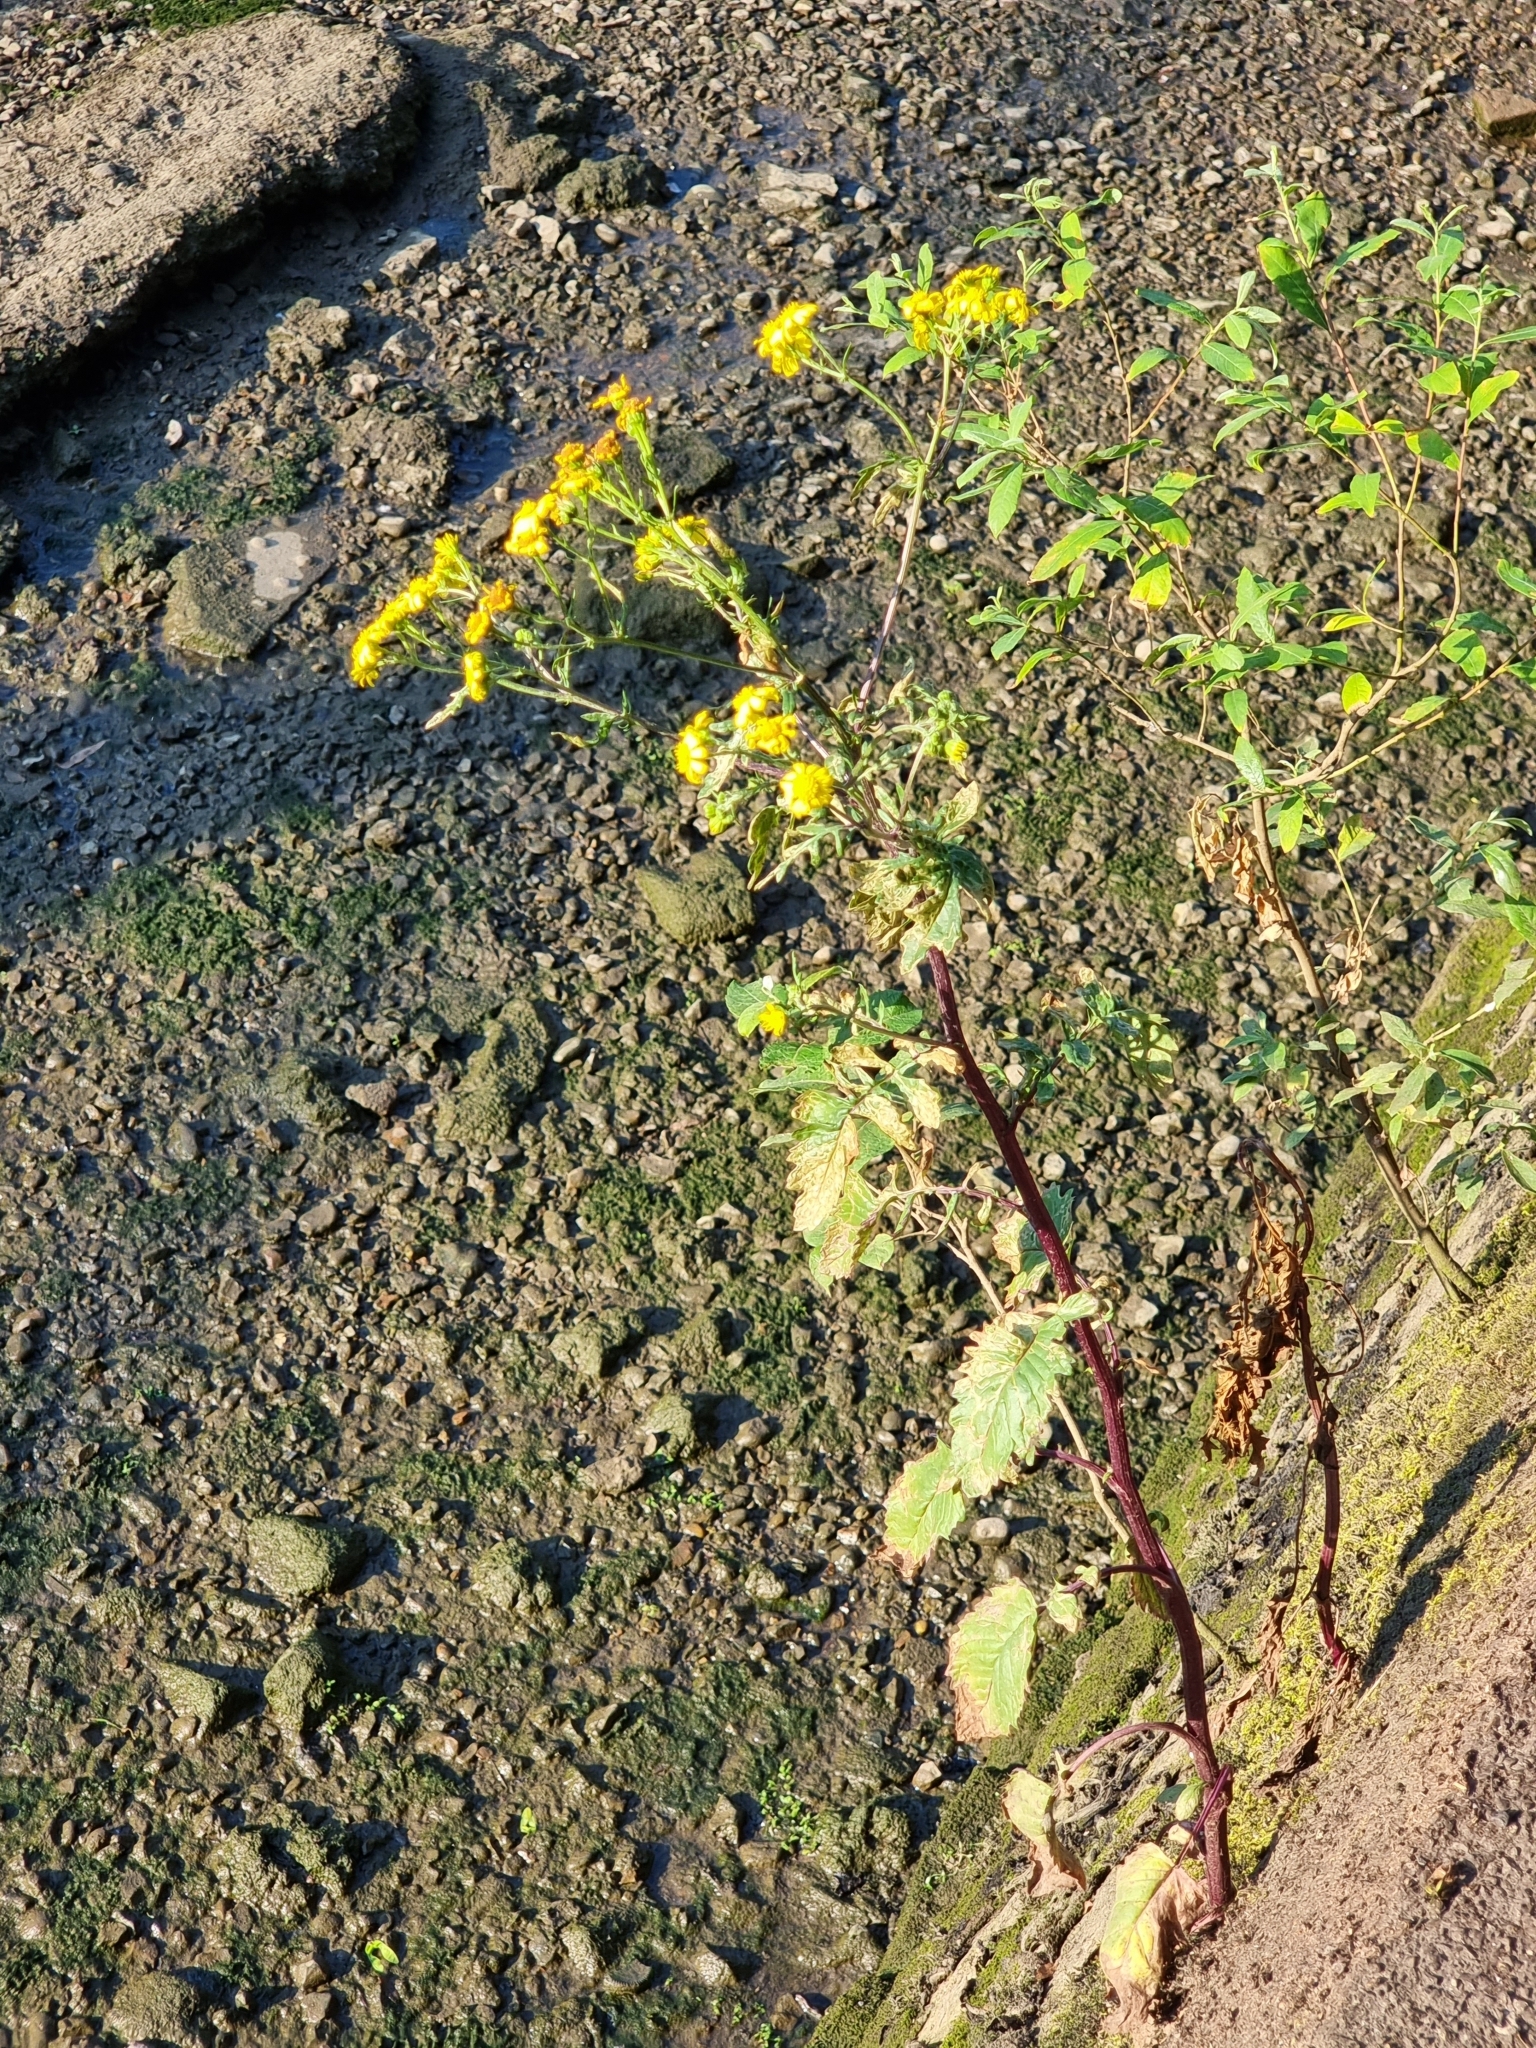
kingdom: Plantae
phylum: Tracheophyta
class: Magnoliopsida
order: Asterales
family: Asteraceae
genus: Jacobaea
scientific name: Jacobaea aquatica
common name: Water ragwort
